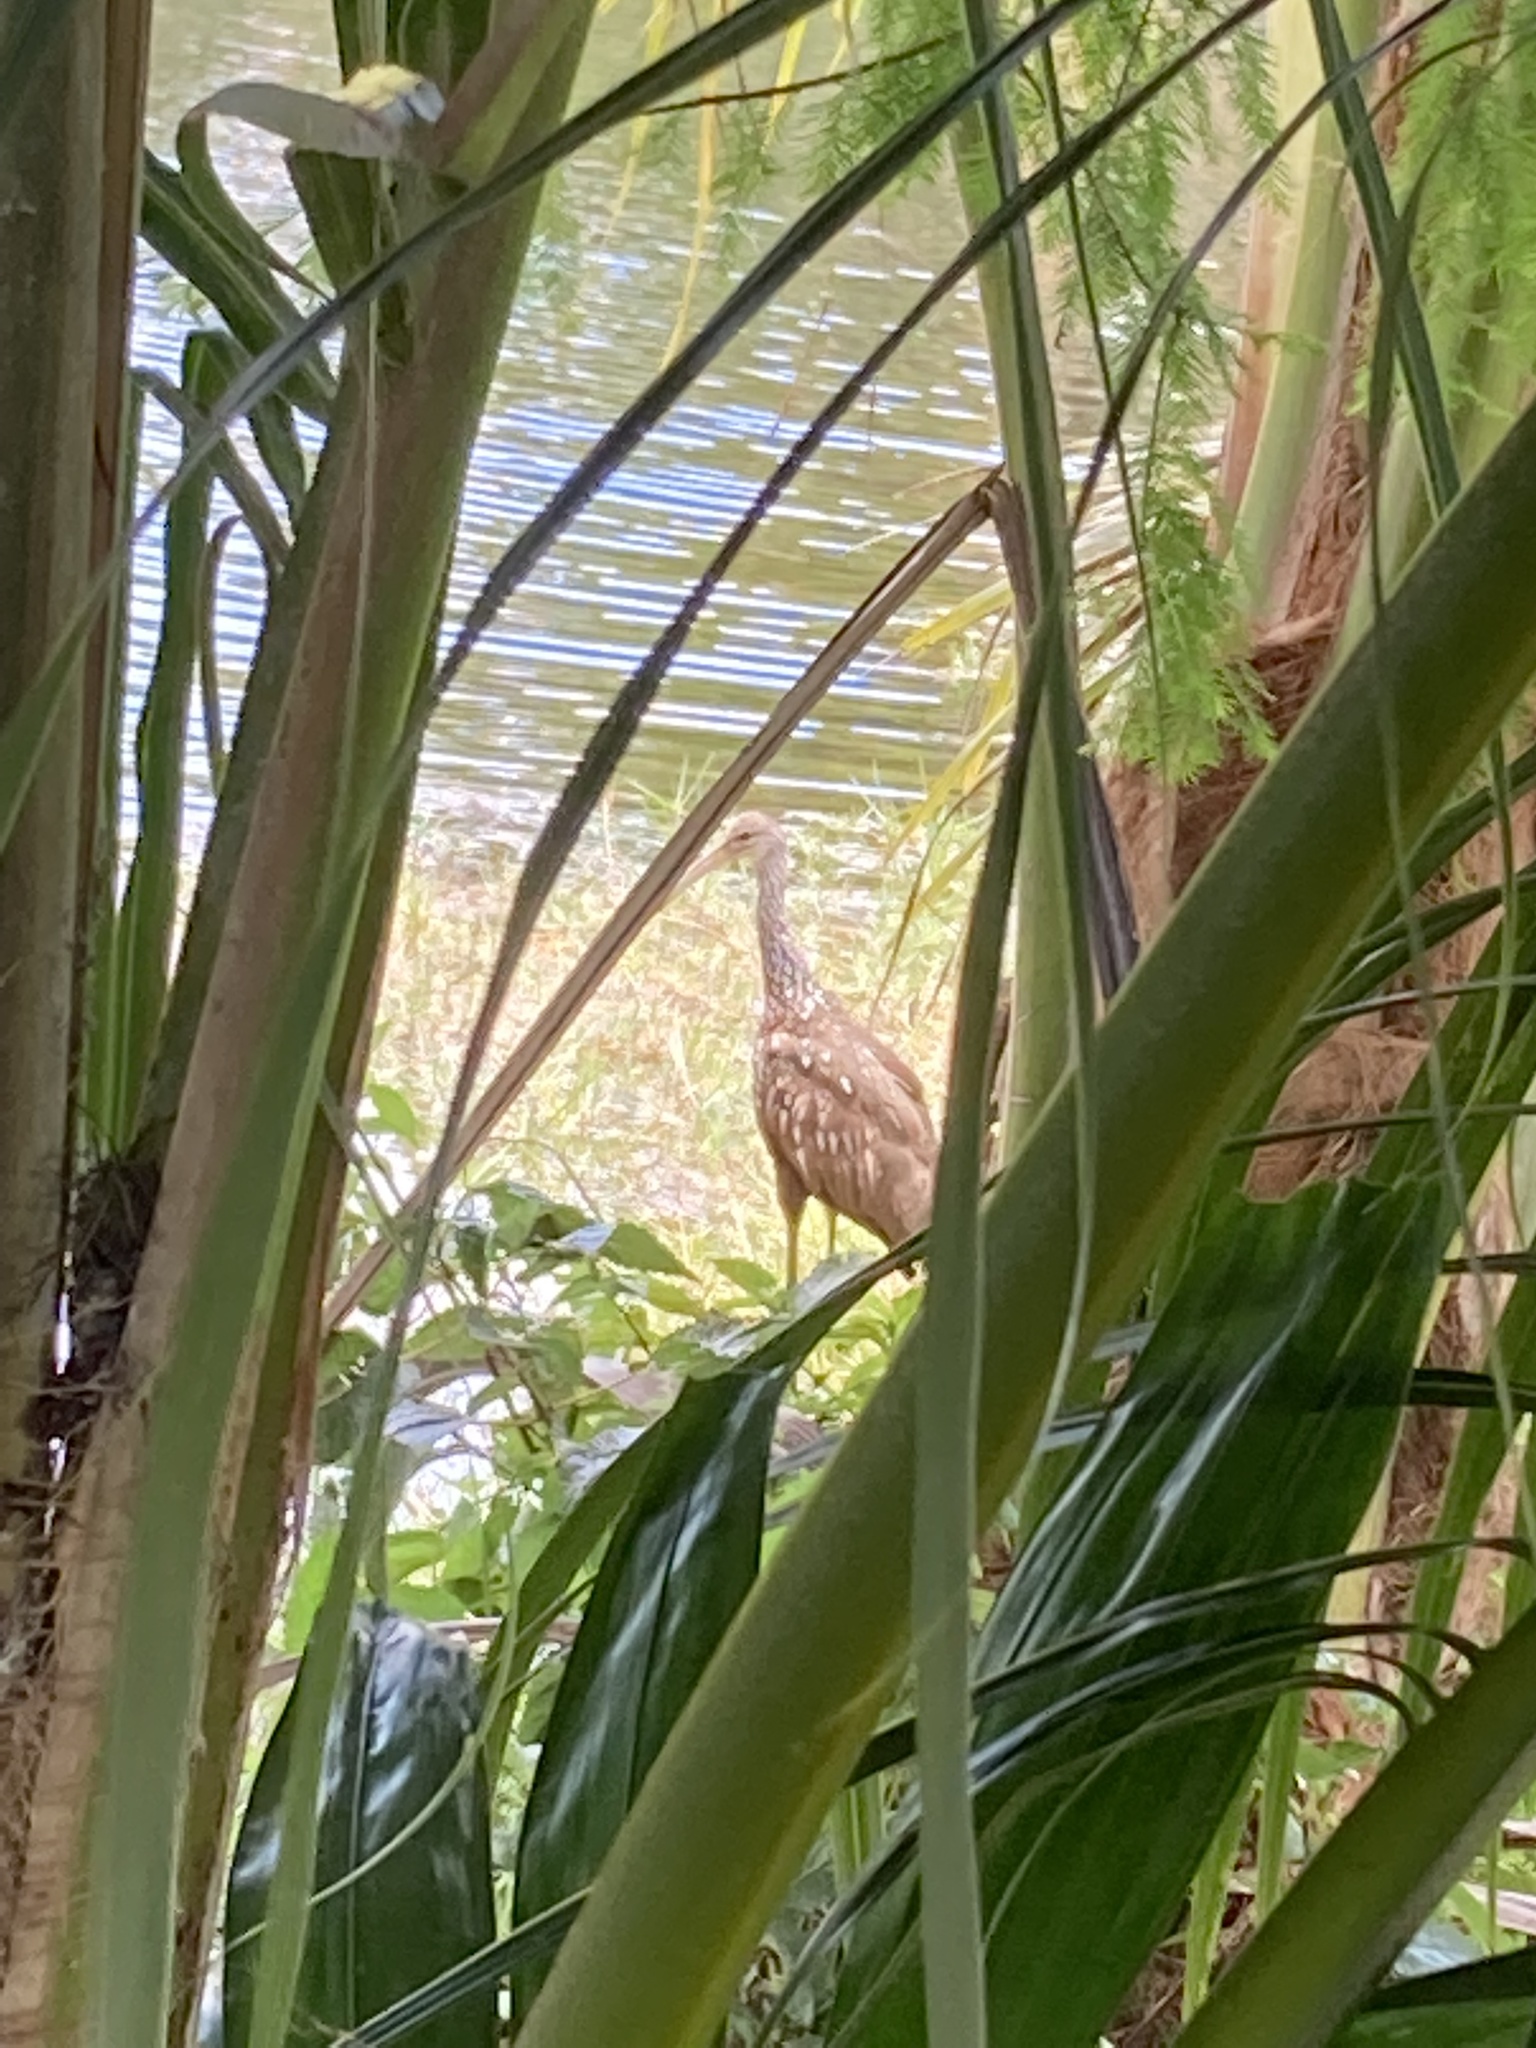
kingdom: Animalia
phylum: Chordata
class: Aves
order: Gruiformes
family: Aramidae
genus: Aramus
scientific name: Aramus guarauna
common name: Limpkin
